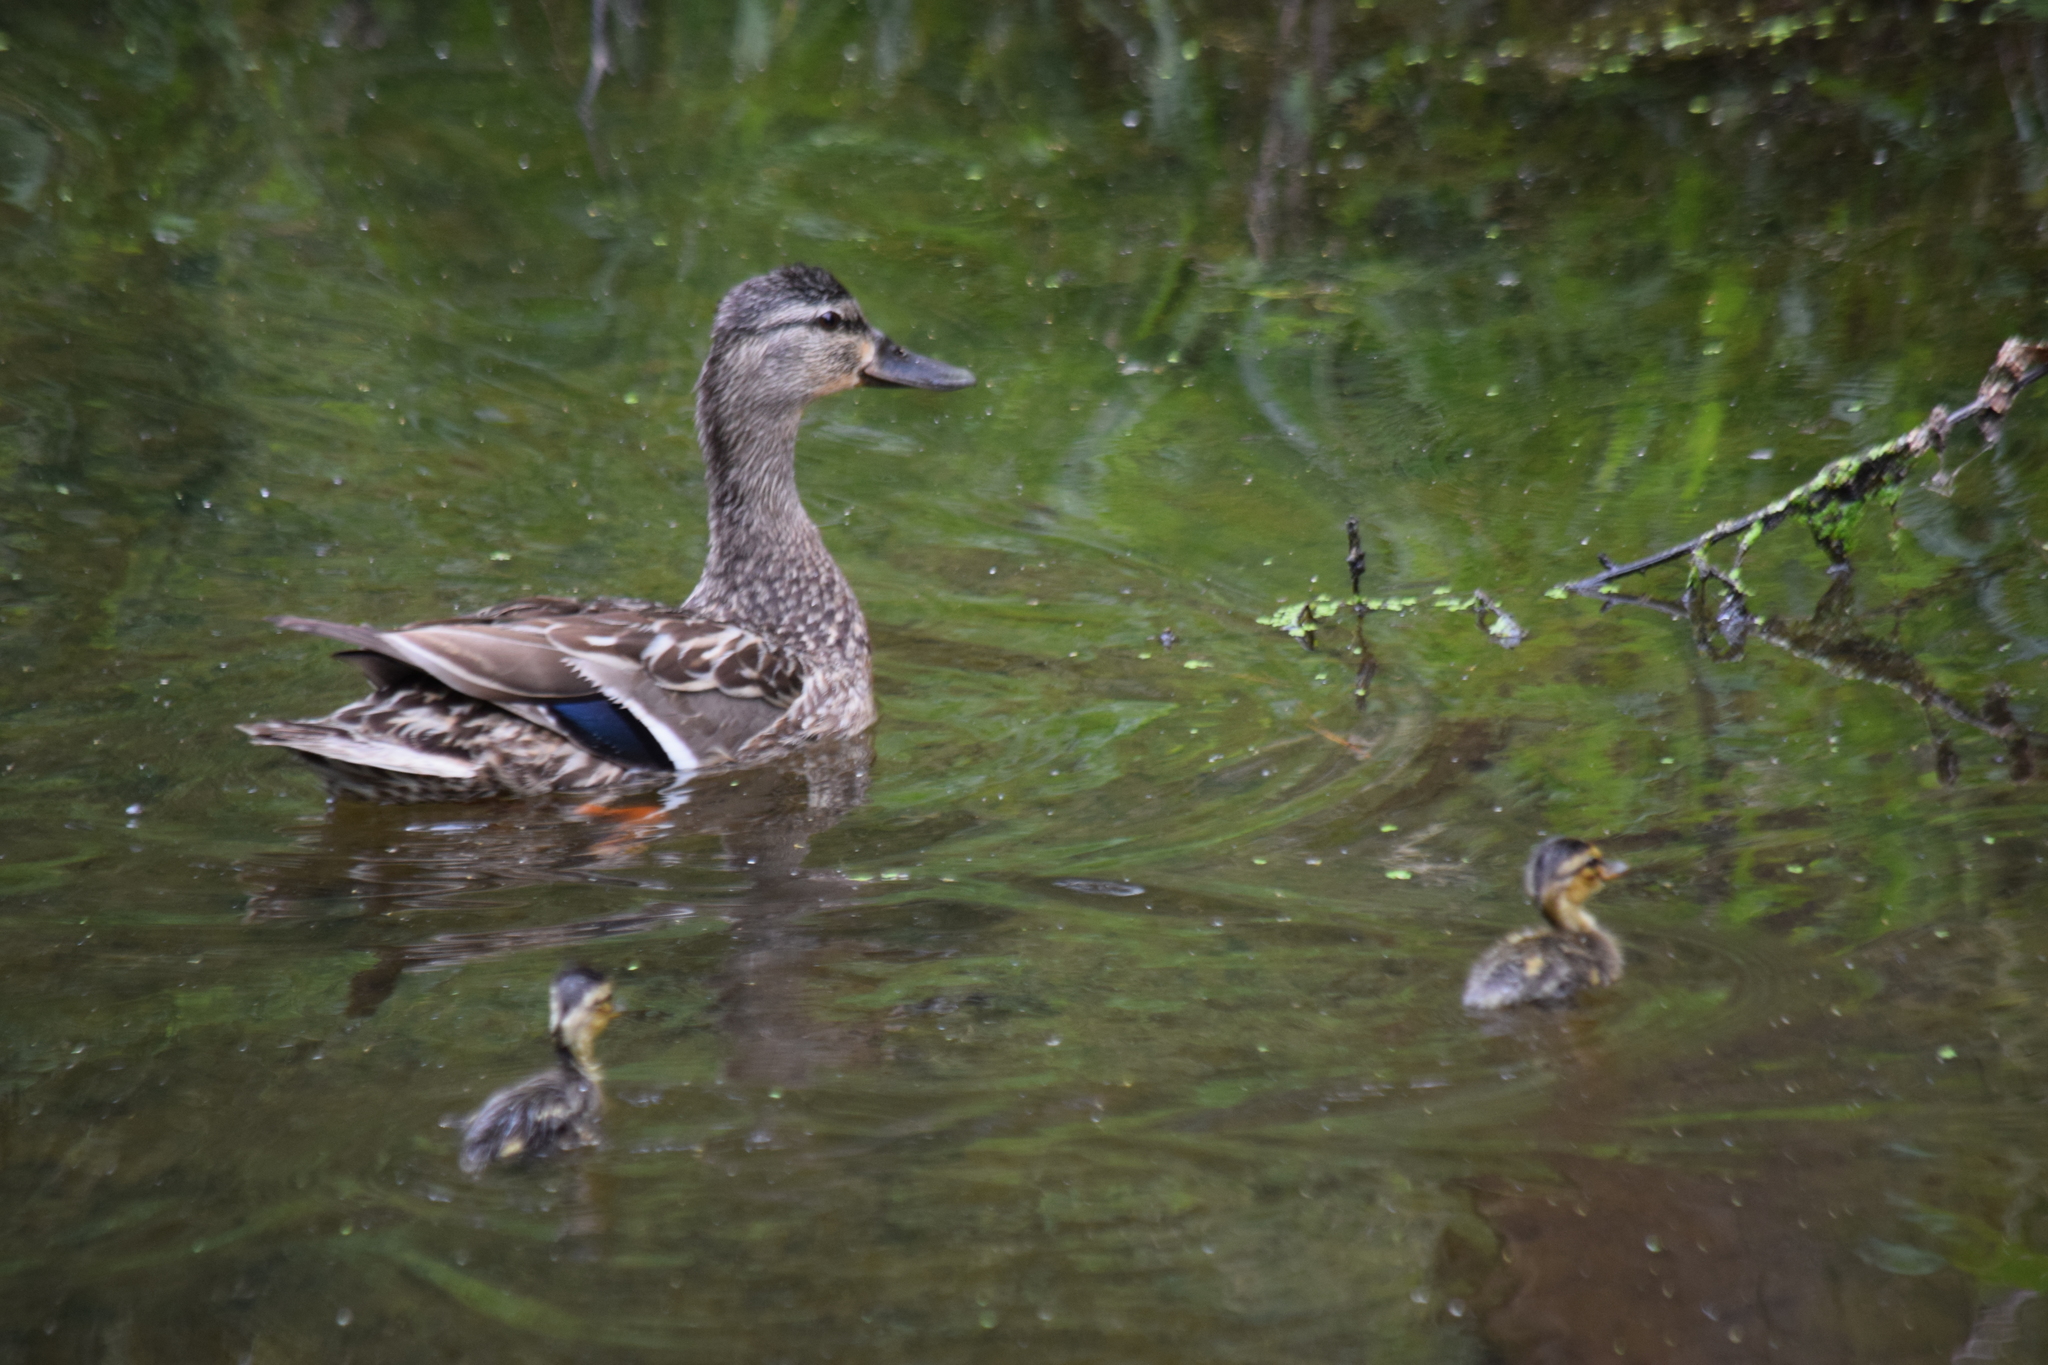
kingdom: Animalia
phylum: Chordata
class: Aves
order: Anseriformes
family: Anatidae
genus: Anas
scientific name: Anas platyrhynchos
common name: Mallard
